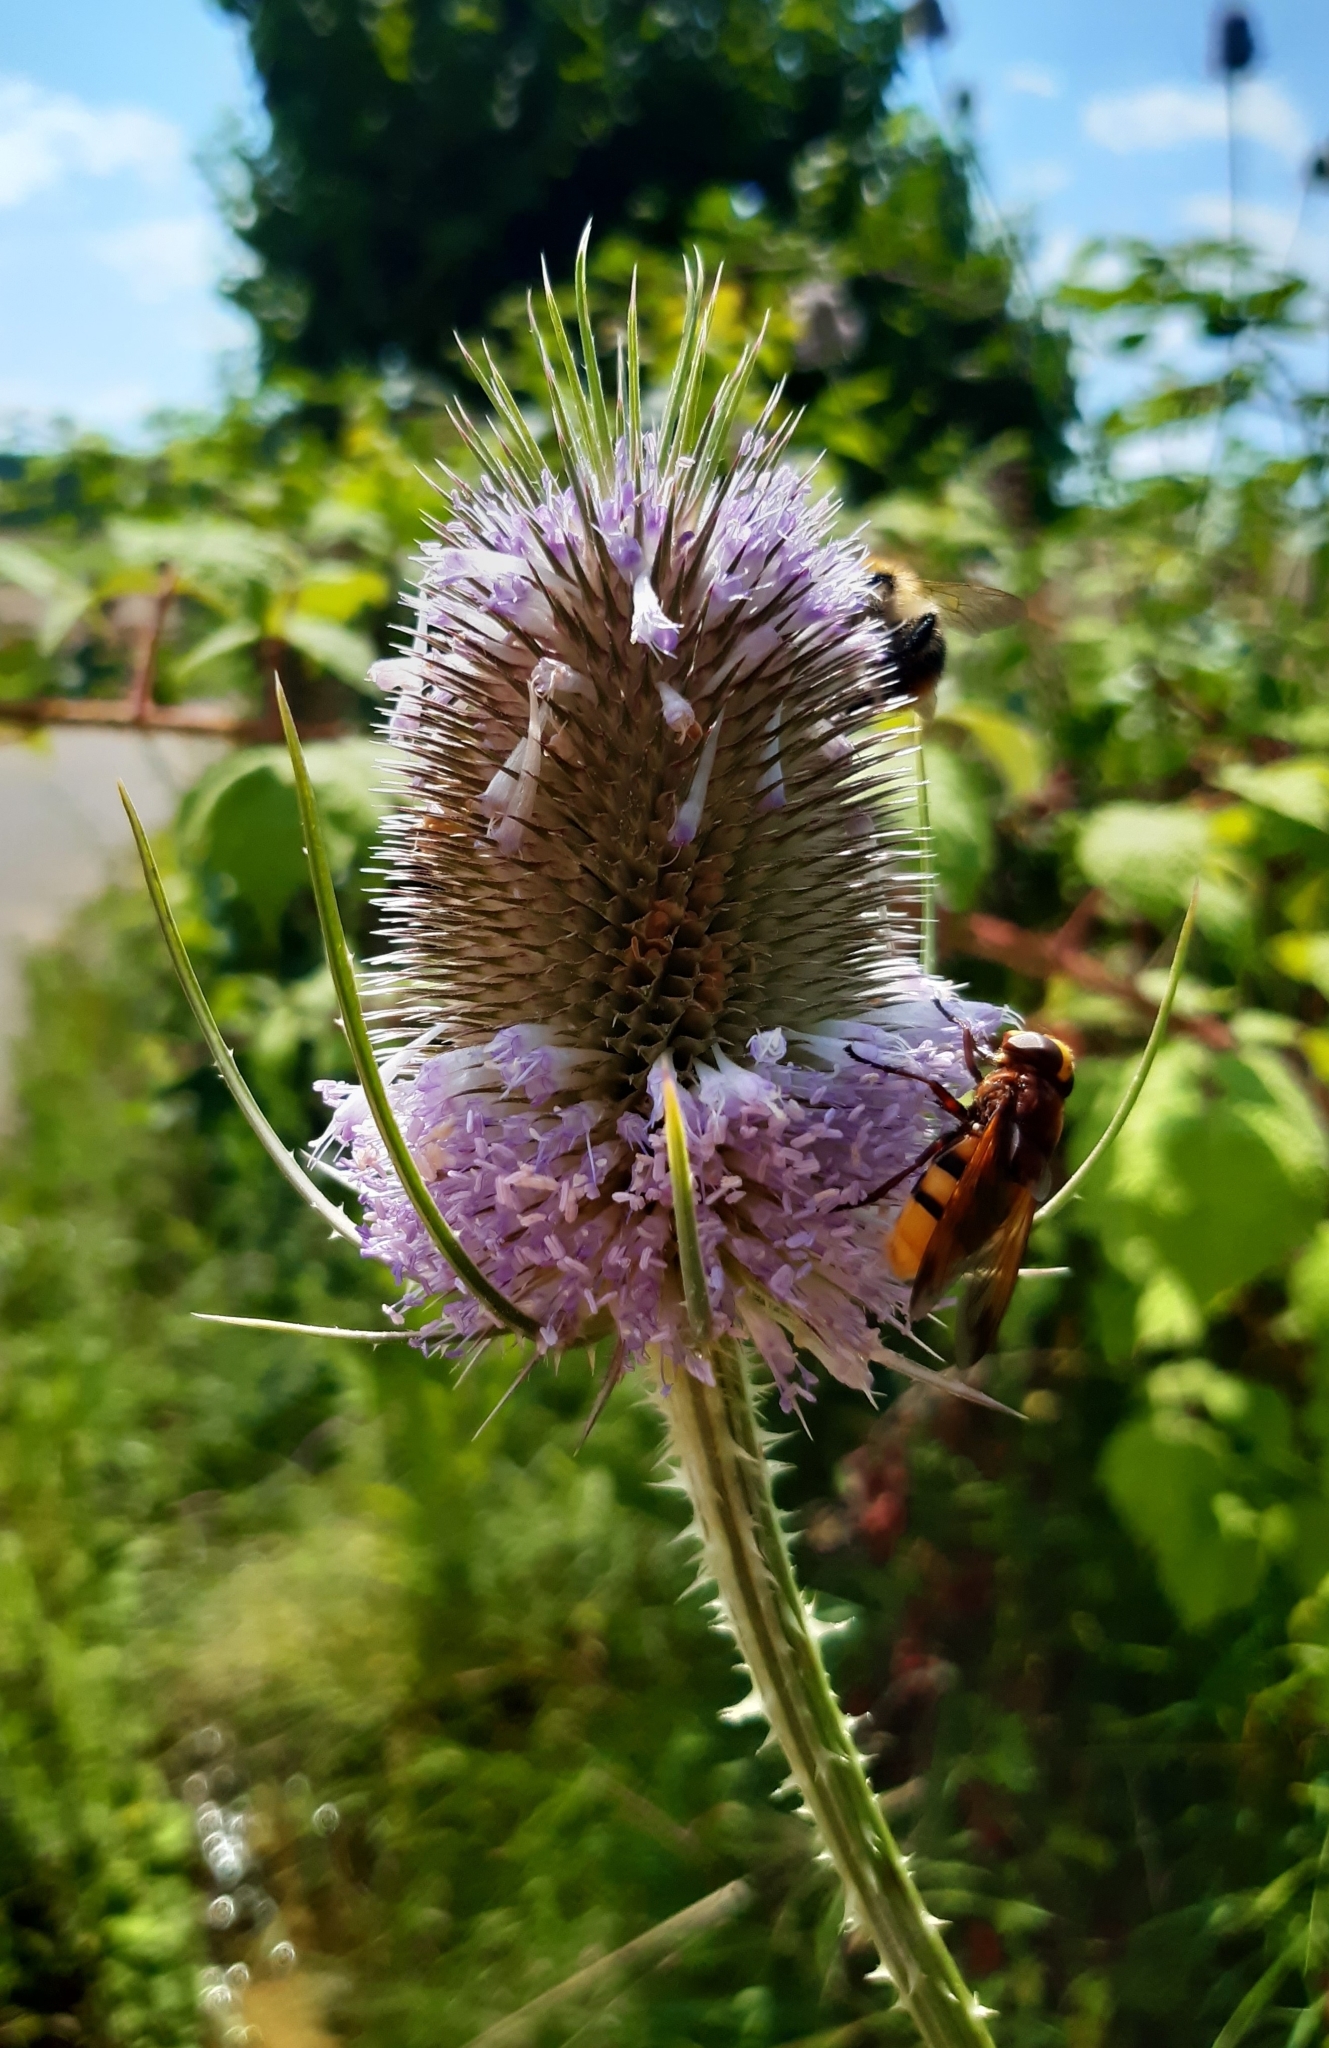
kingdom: Plantae
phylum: Tracheophyta
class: Magnoliopsida
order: Dipsacales
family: Caprifoliaceae
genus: Dipsacus
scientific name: Dipsacus fullonum
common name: Teasel
